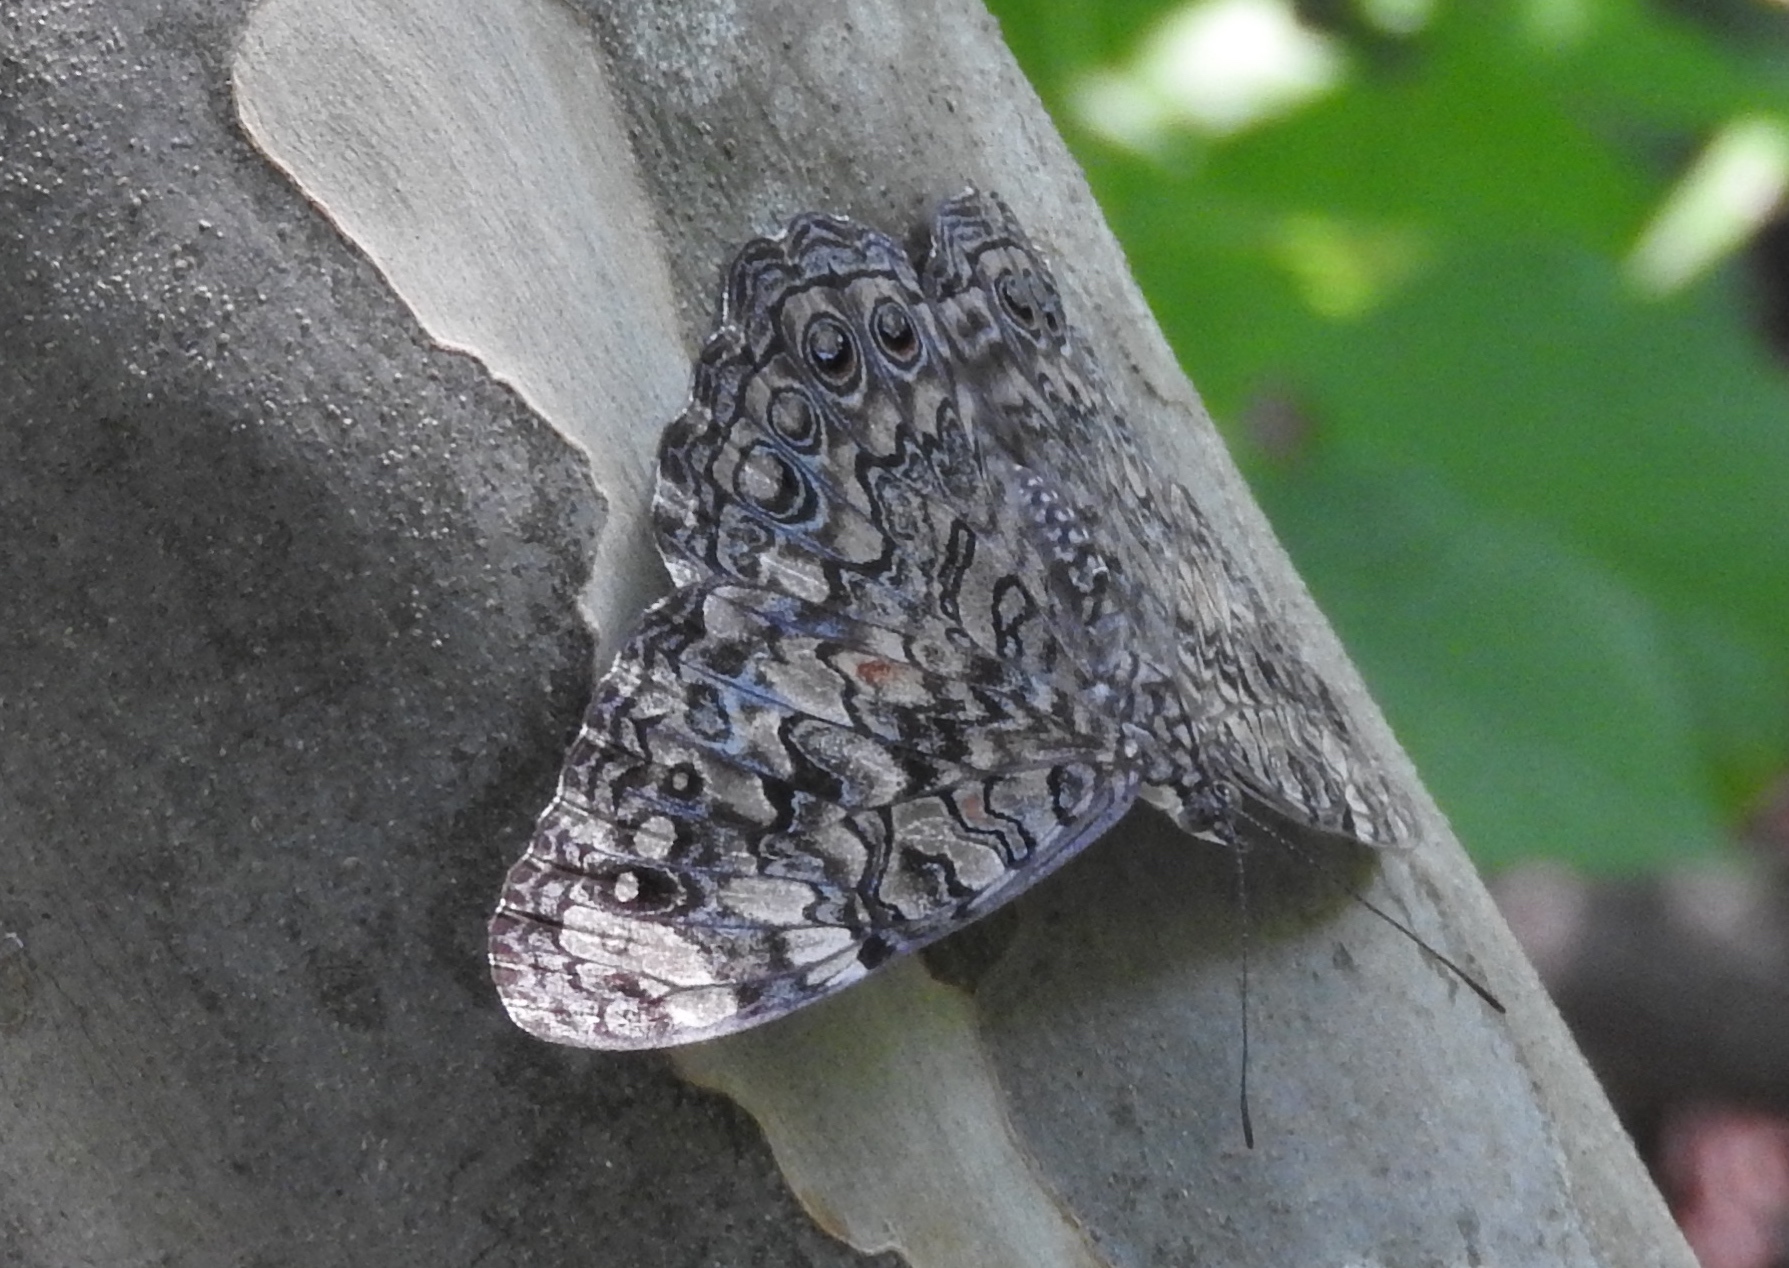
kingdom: Animalia
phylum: Arthropoda
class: Insecta
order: Lepidoptera
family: Nymphalidae
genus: Hamadryas
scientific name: Hamadryas februa
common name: Gray cracker
